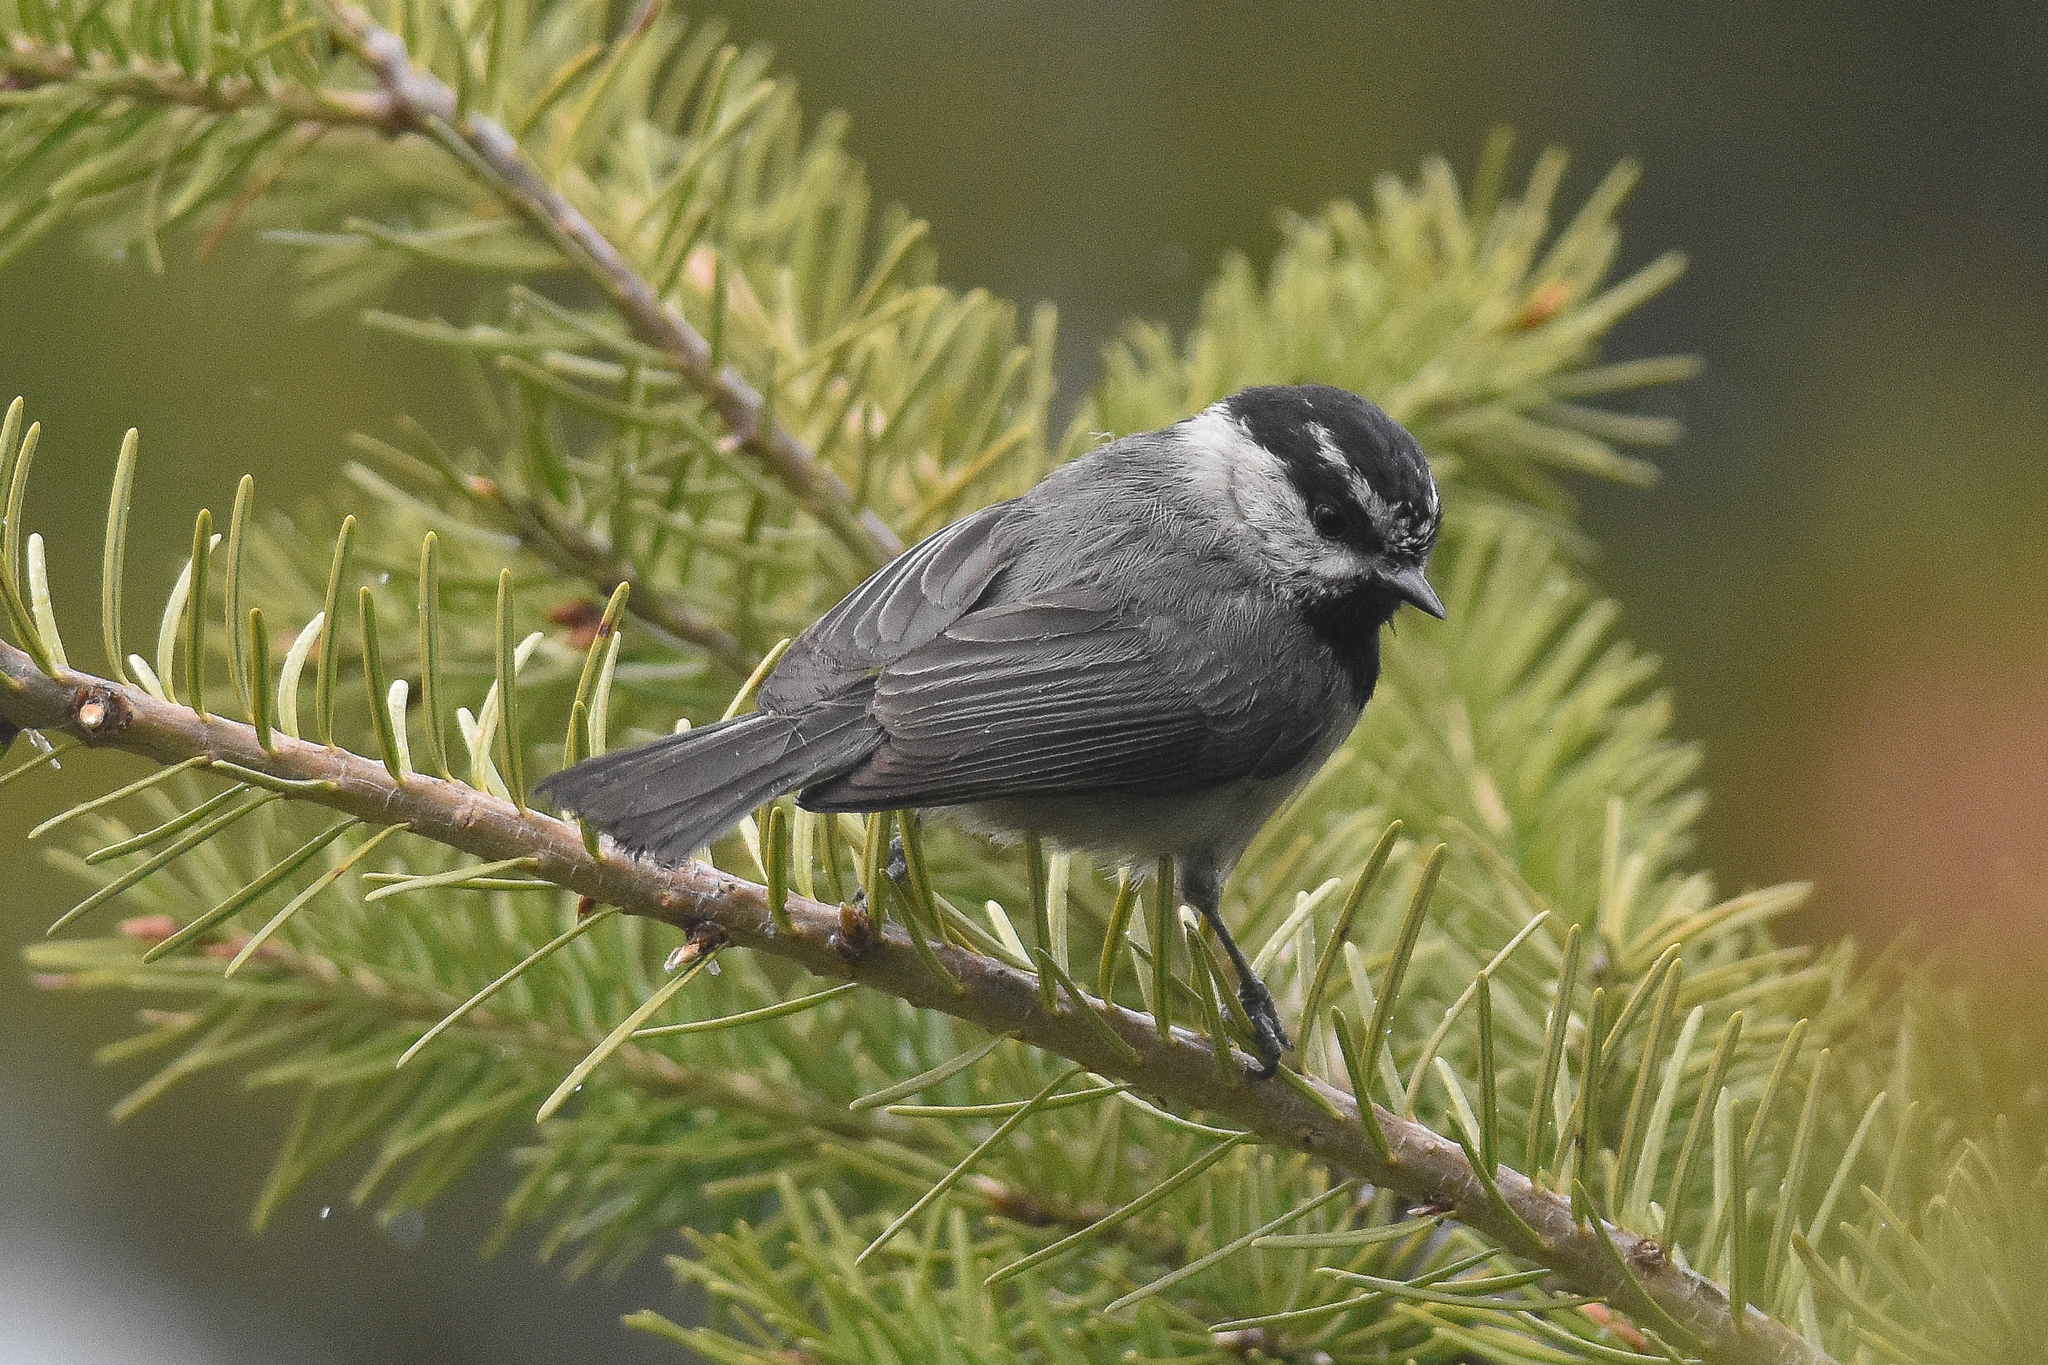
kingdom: Animalia
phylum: Chordata
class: Aves
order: Passeriformes
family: Paridae
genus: Poecile
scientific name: Poecile gambeli
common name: Mountain chickadee
